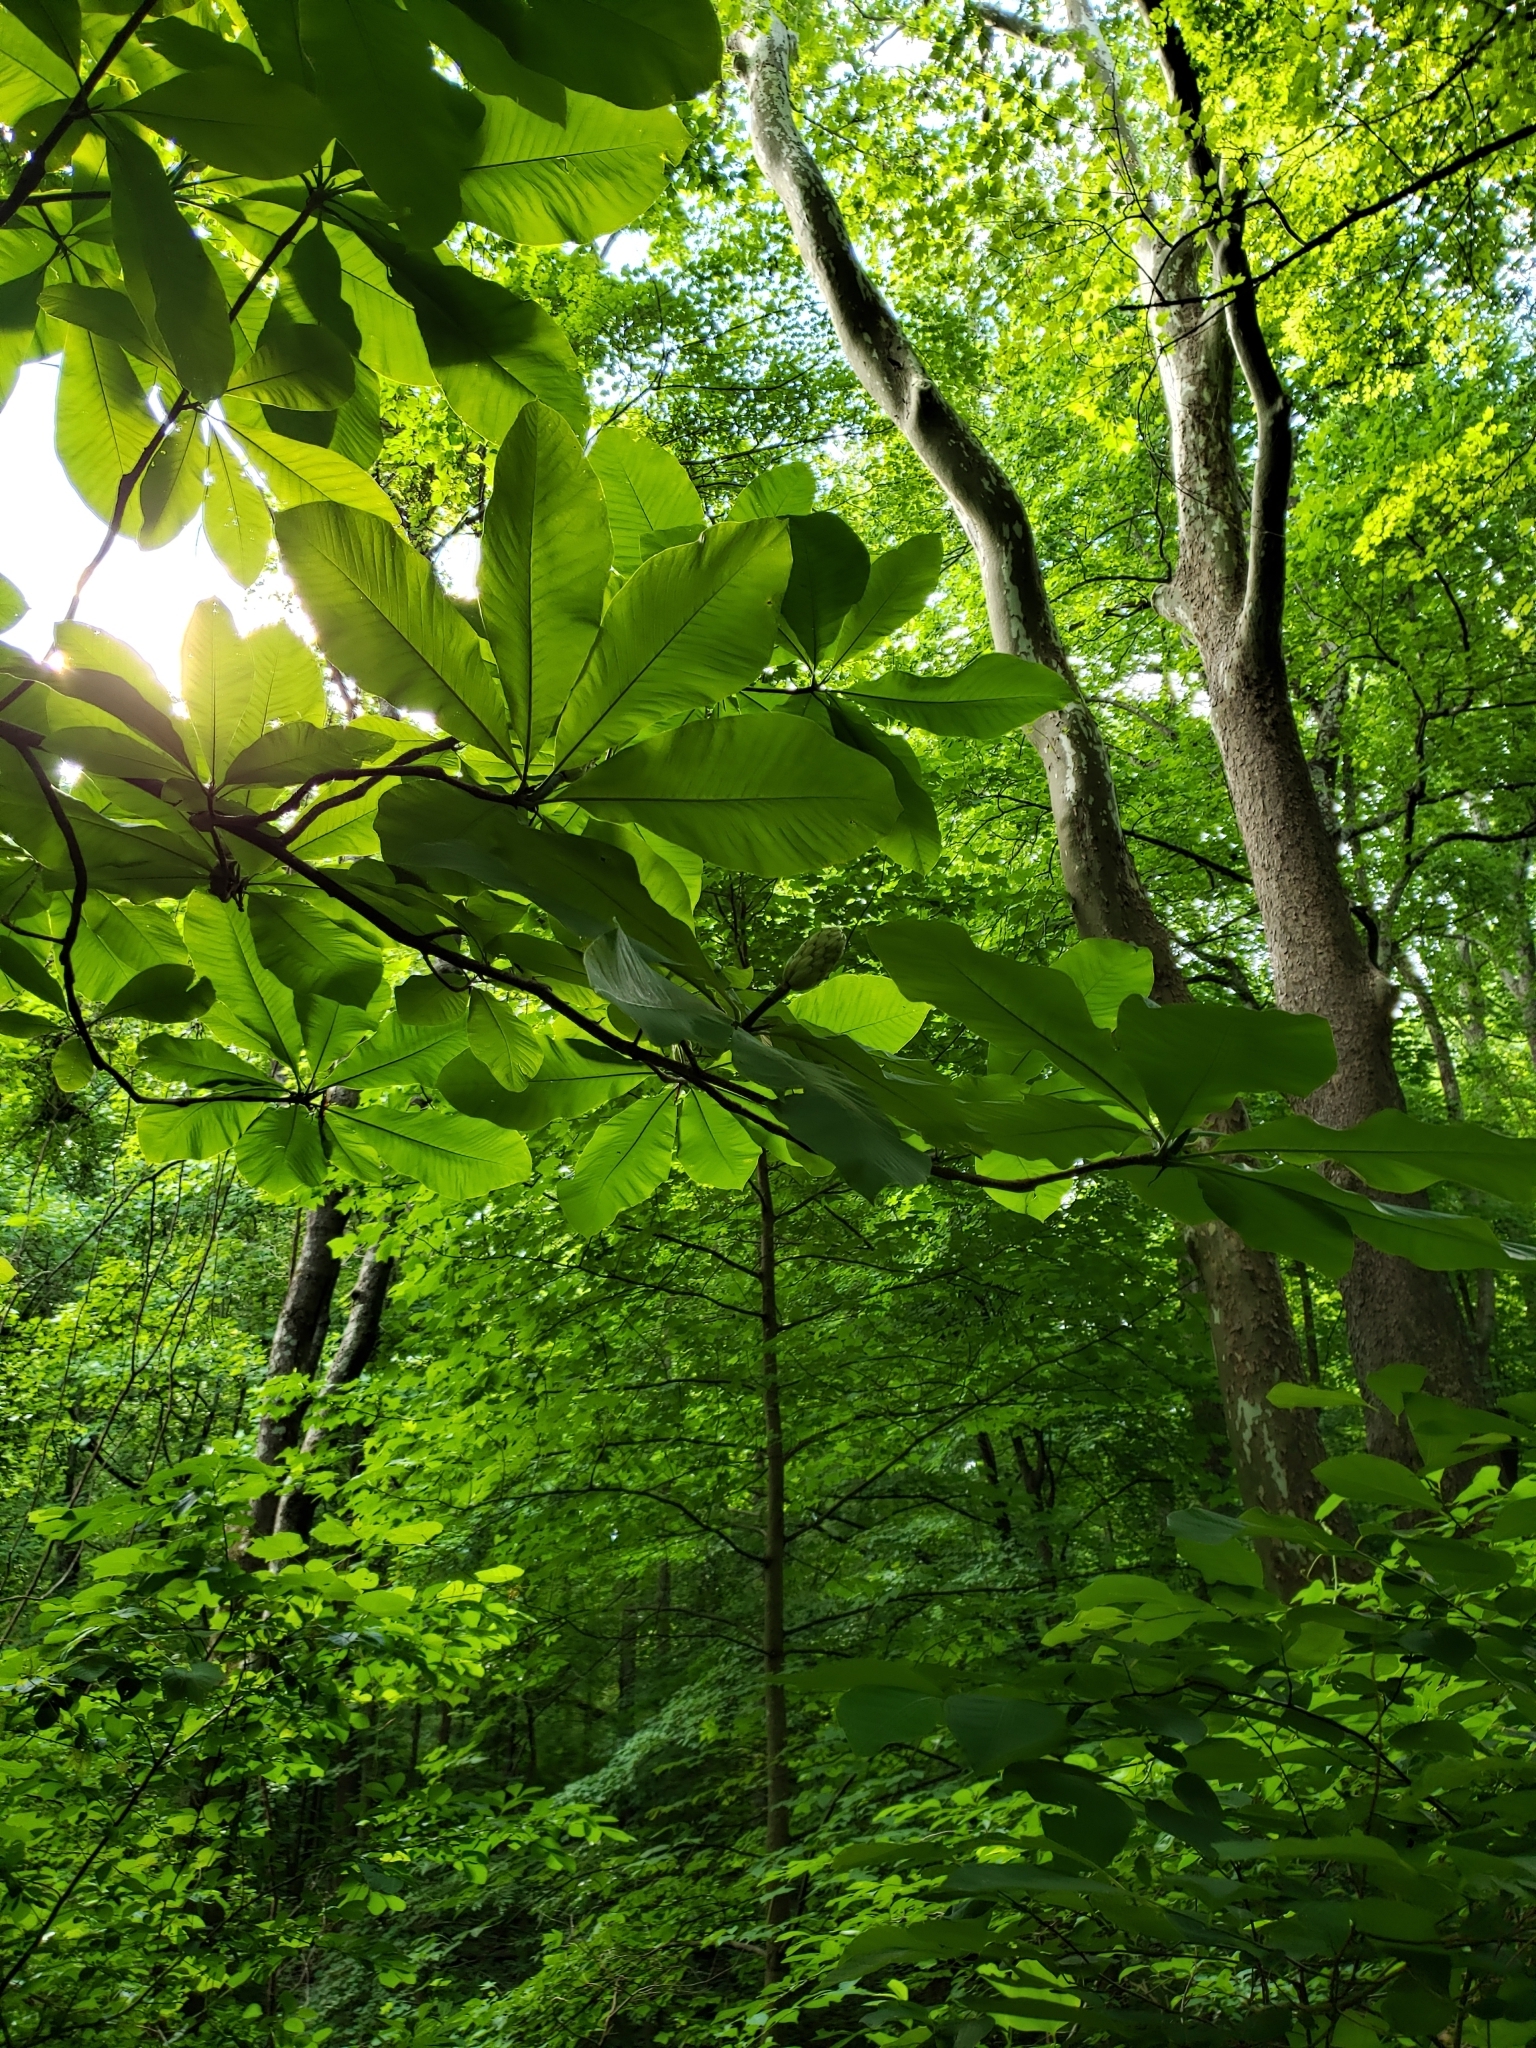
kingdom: Plantae
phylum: Tracheophyta
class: Magnoliopsida
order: Magnoliales
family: Magnoliaceae
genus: Magnolia
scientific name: Magnolia tripetala
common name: Umbrella magnolia
